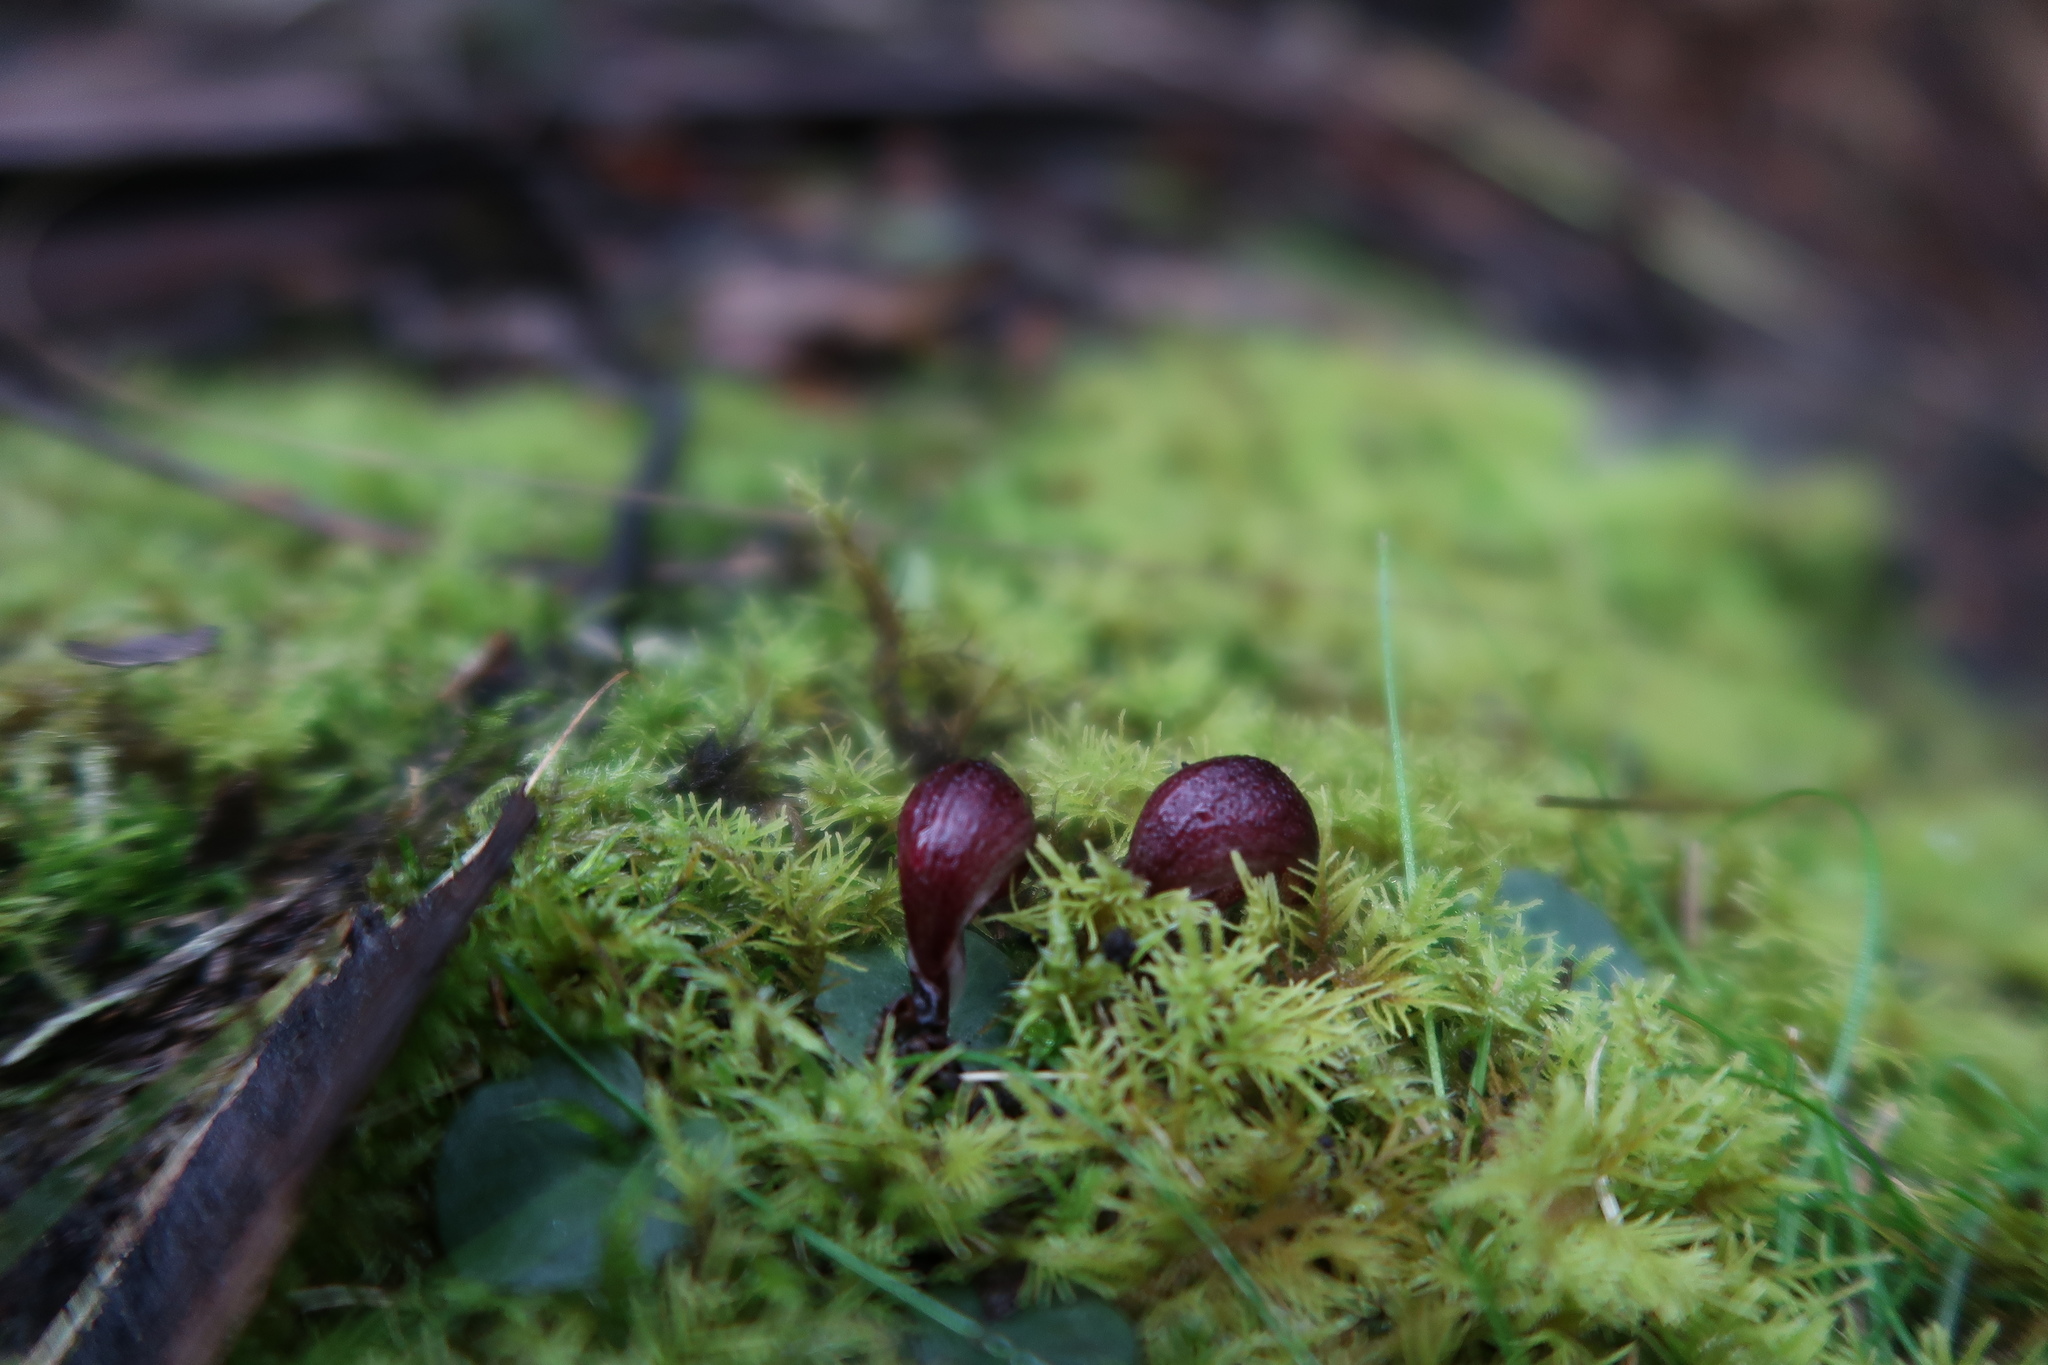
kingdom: Plantae
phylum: Tracheophyta
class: Liliopsida
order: Asparagales
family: Orchidaceae
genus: Corybas
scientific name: Corybas aconitiflorus
